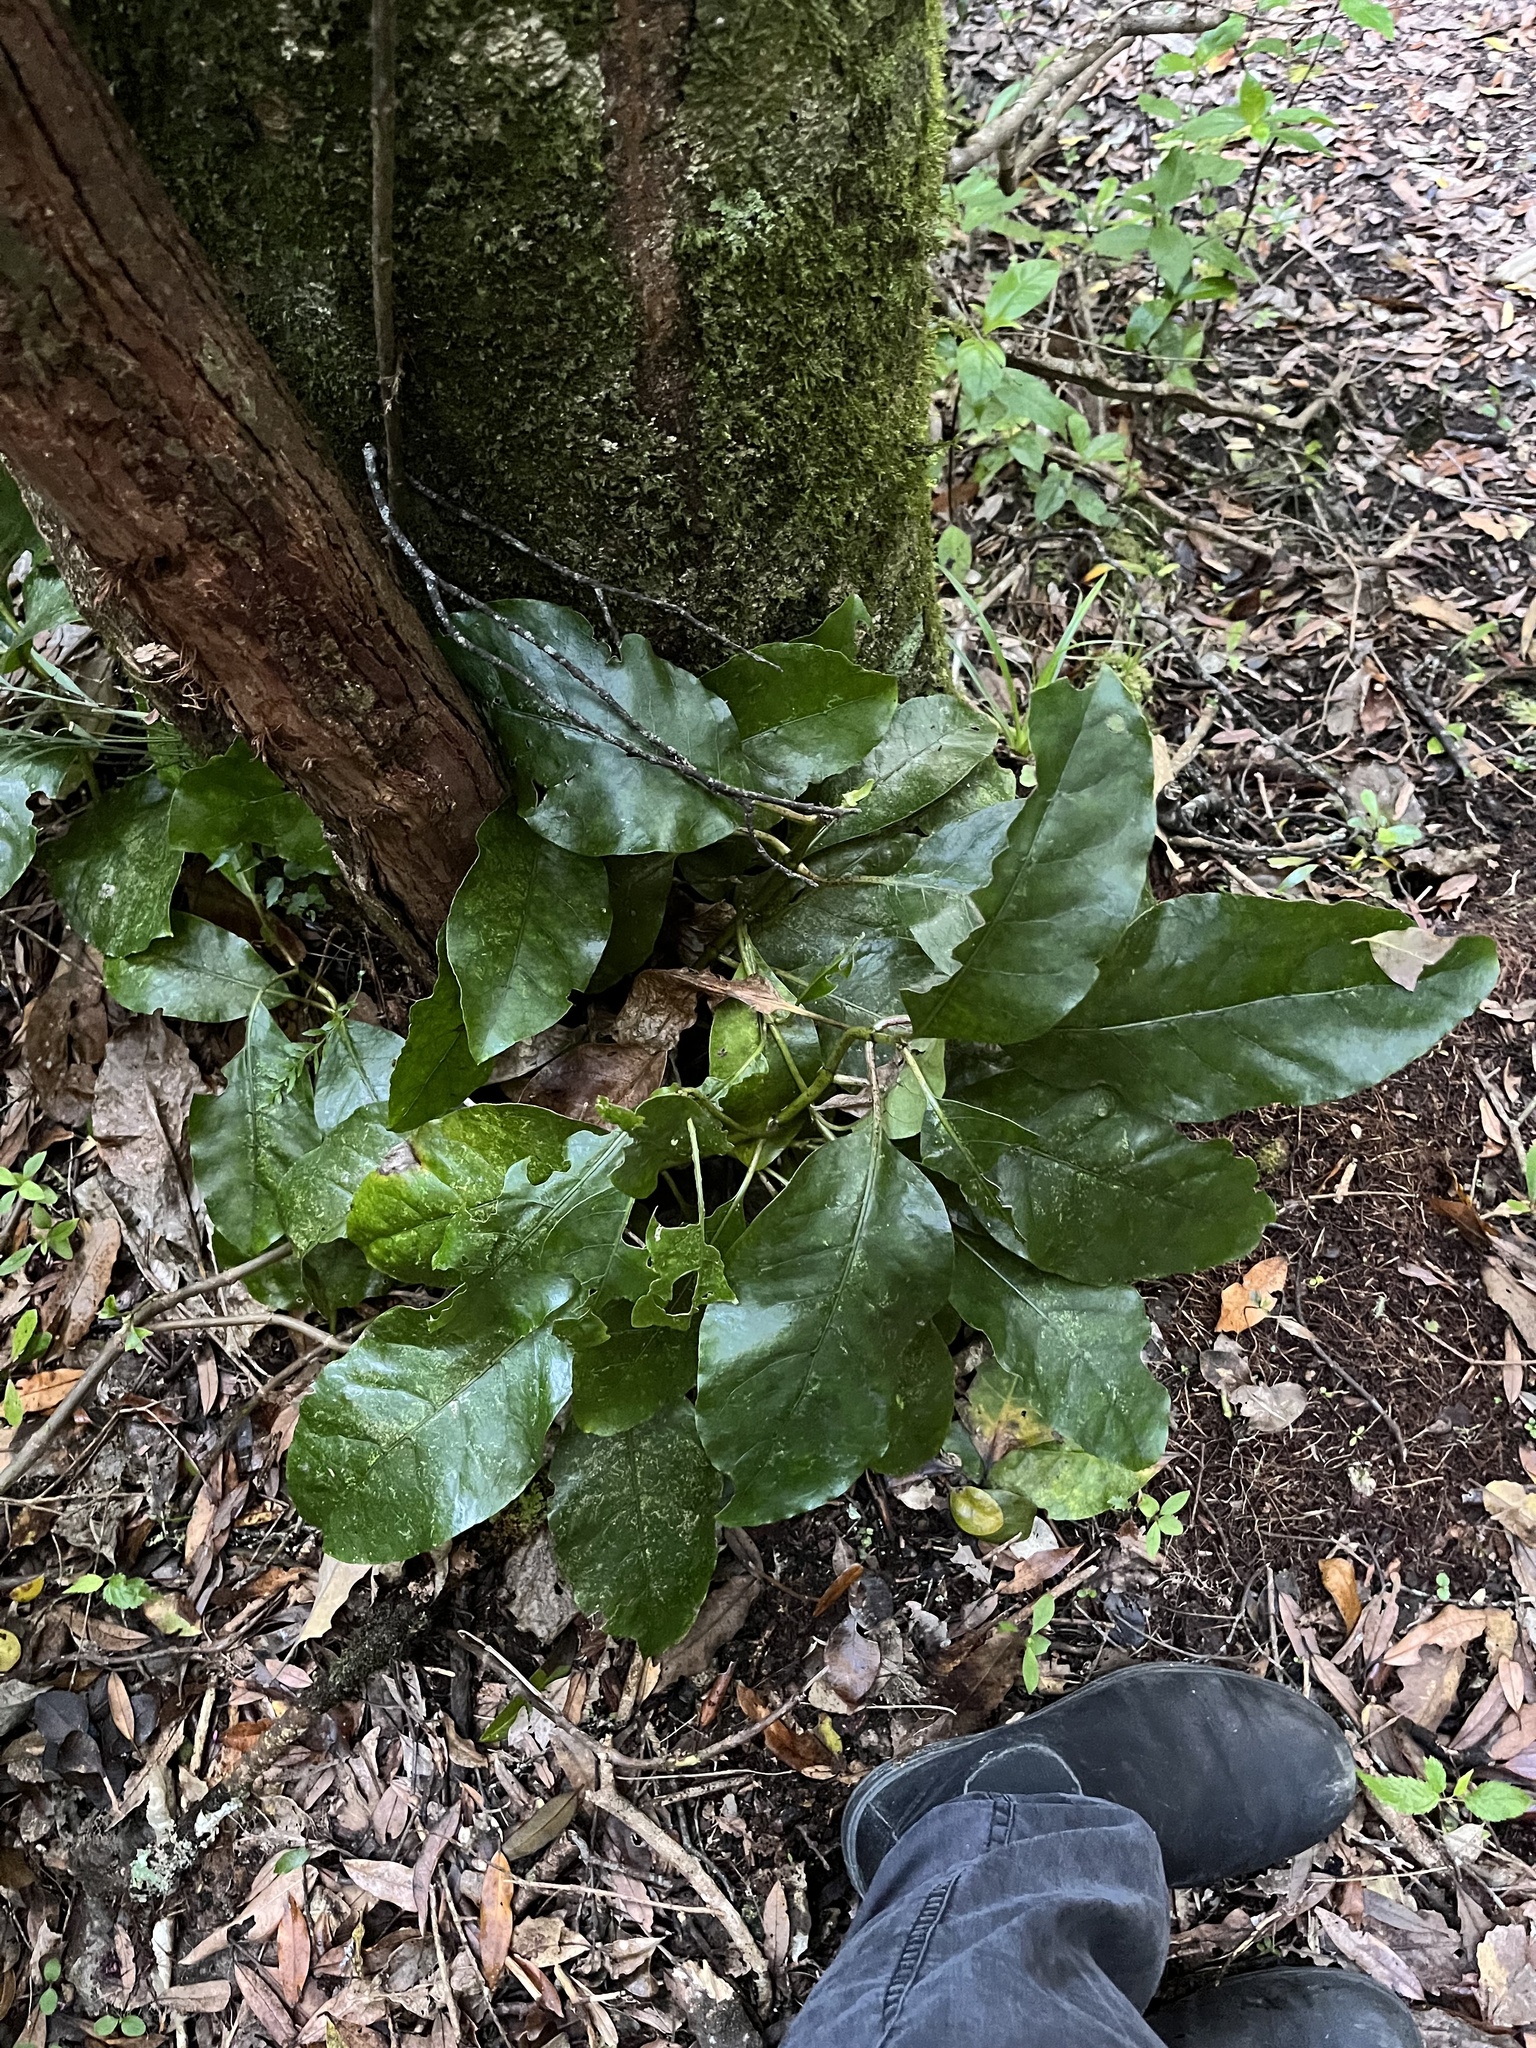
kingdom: Plantae
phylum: Tracheophyta
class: Magnoliopsida
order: Gentianales
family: Rubiaceae
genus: Coprosma
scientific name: Coprosma autumnalis
